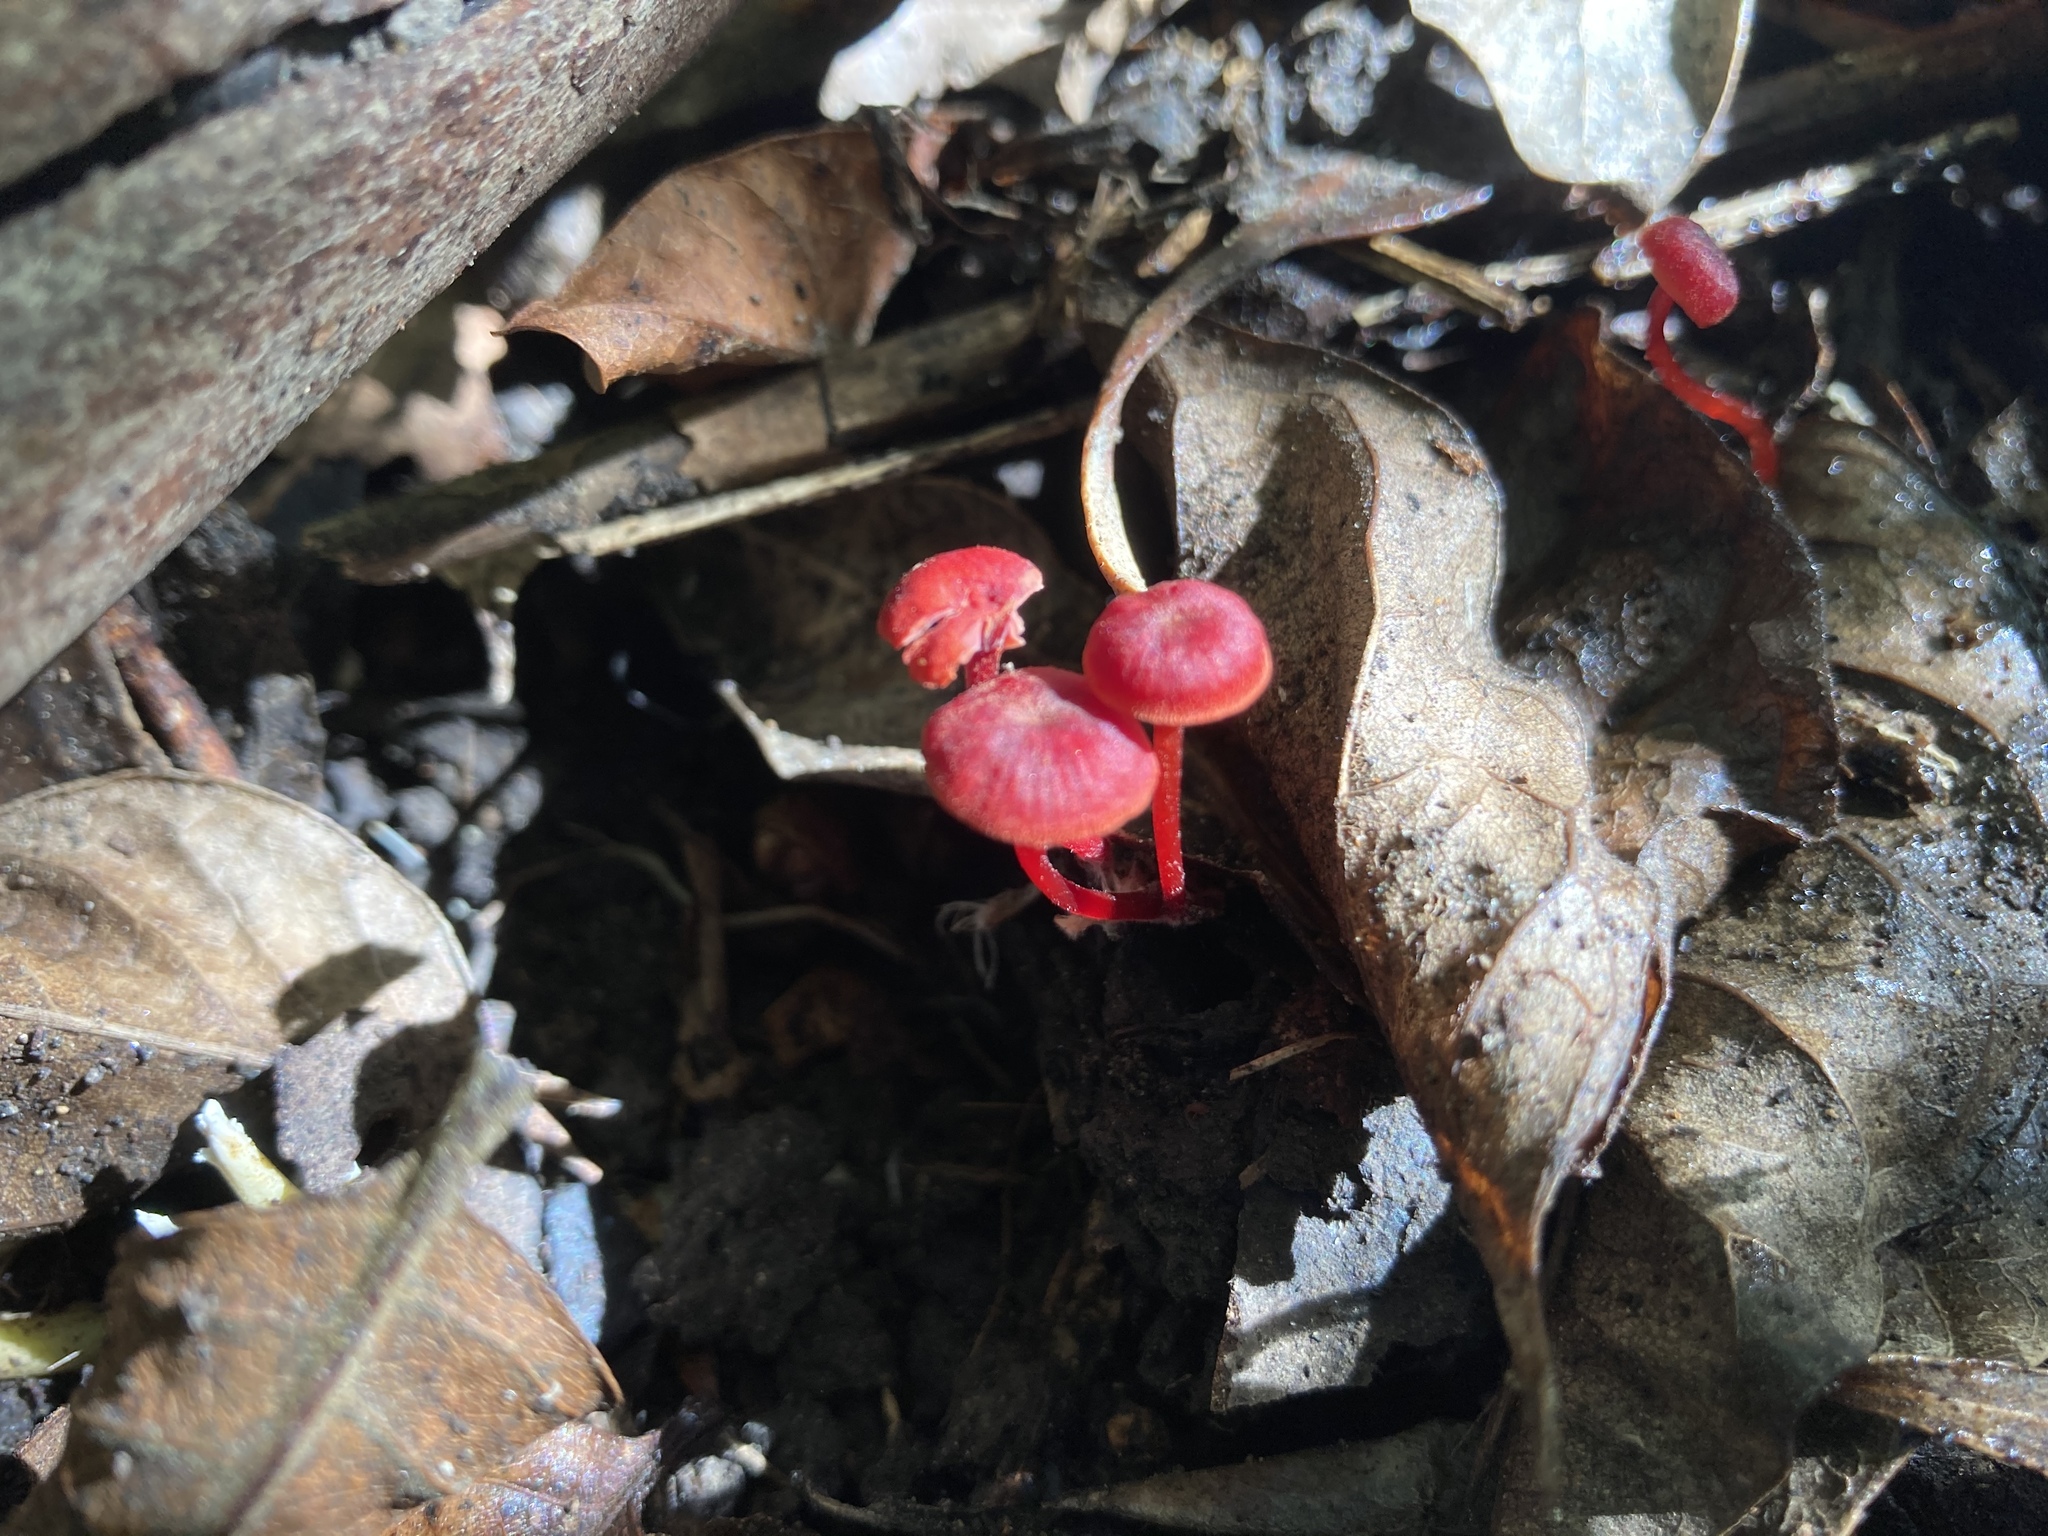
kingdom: Fungi
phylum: Basidiomycota
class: Agaricomycetes
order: Agaricales
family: Mycenaceae
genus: Cruentomycena
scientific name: Cruentomycena viscidocruenta
